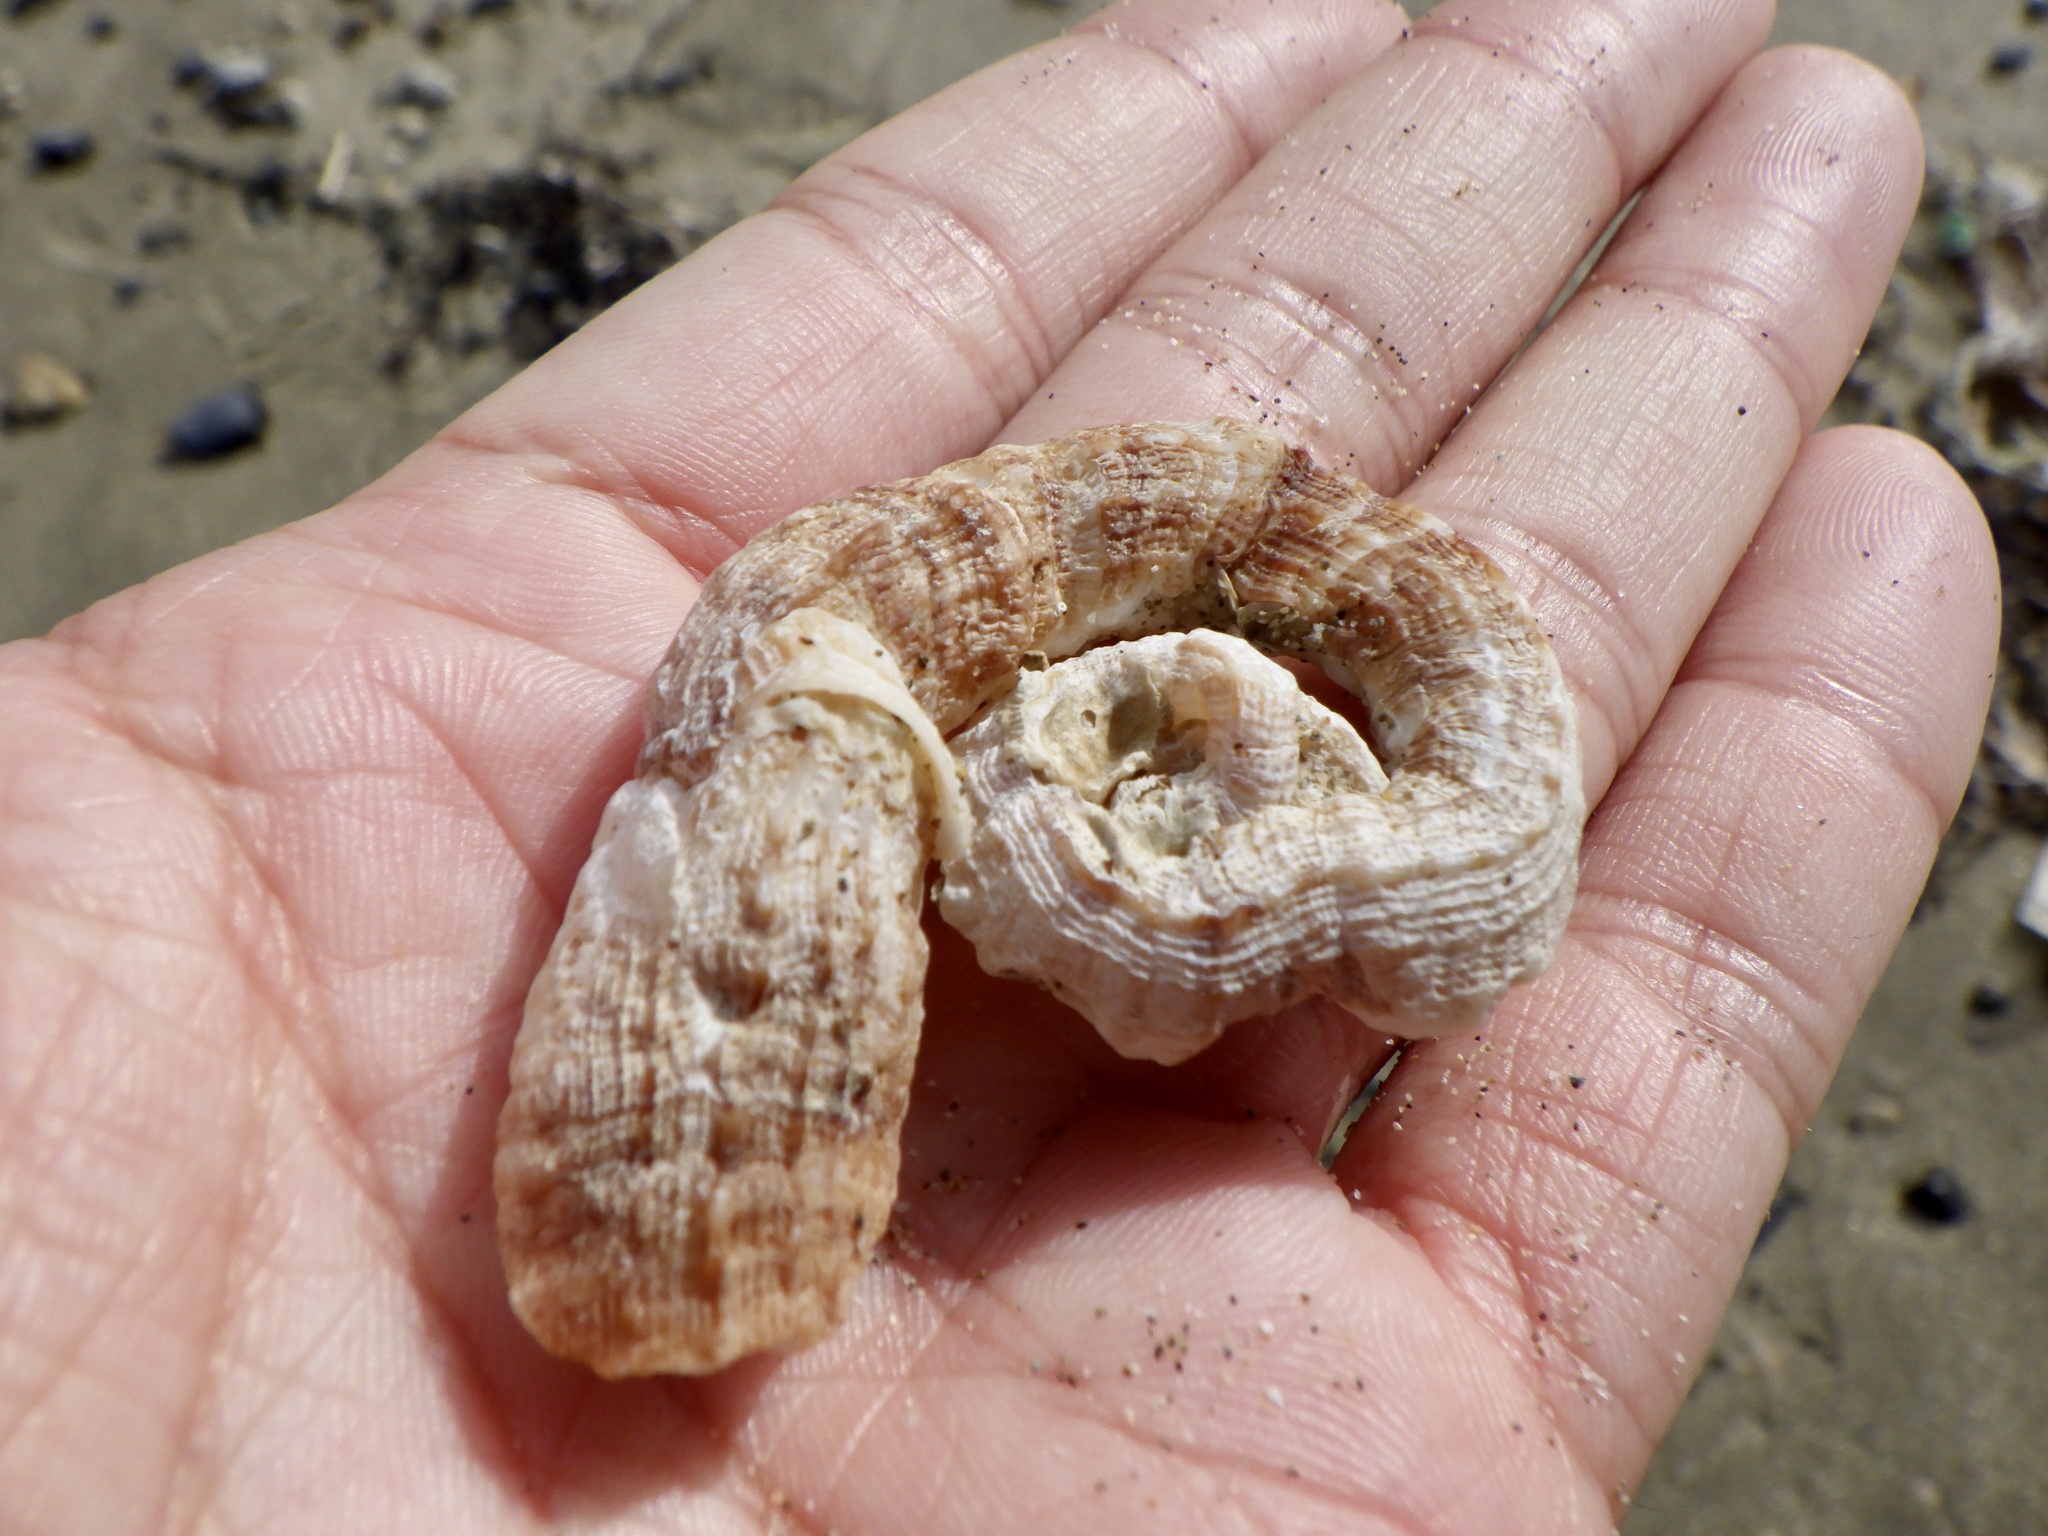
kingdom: Animalia
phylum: Mollusca
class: Gastropoda
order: Littorinimorpha
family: Vermetidae
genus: Thylacodes
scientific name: Thylacodes adamsii
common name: Scaly worm shell
